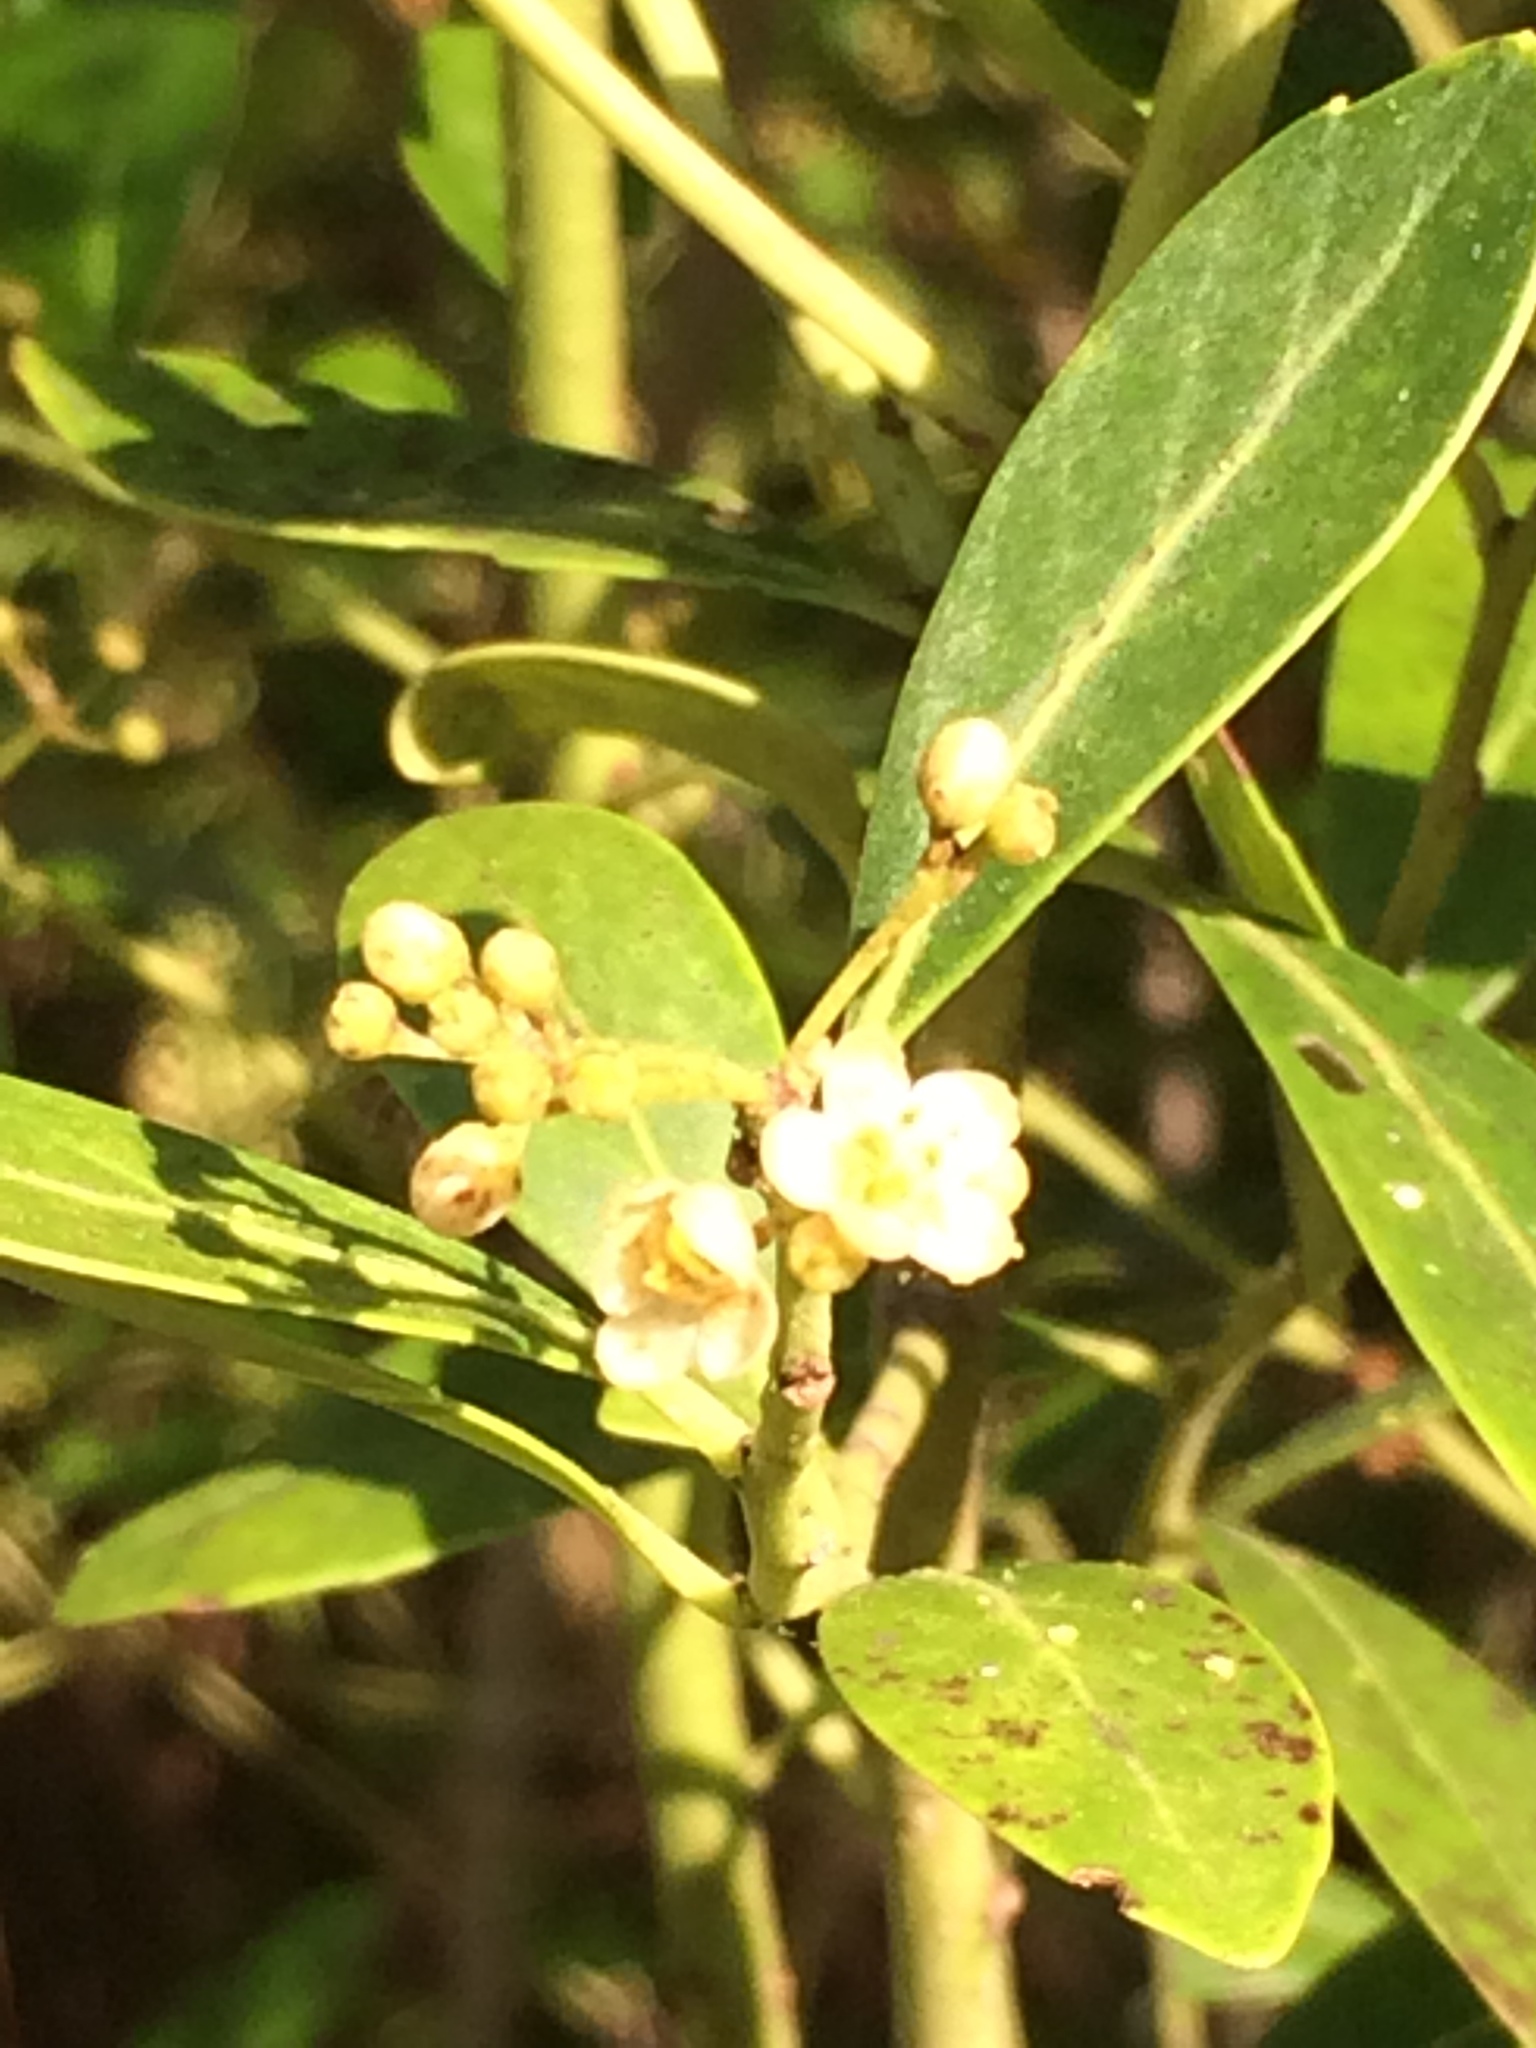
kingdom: Plantae
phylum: Tracheophyta
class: Magnoliopsida
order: Aquifoliales
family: Aquifoliaceae
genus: Ilex
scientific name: Ilex glabra
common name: Bitter gallberry
